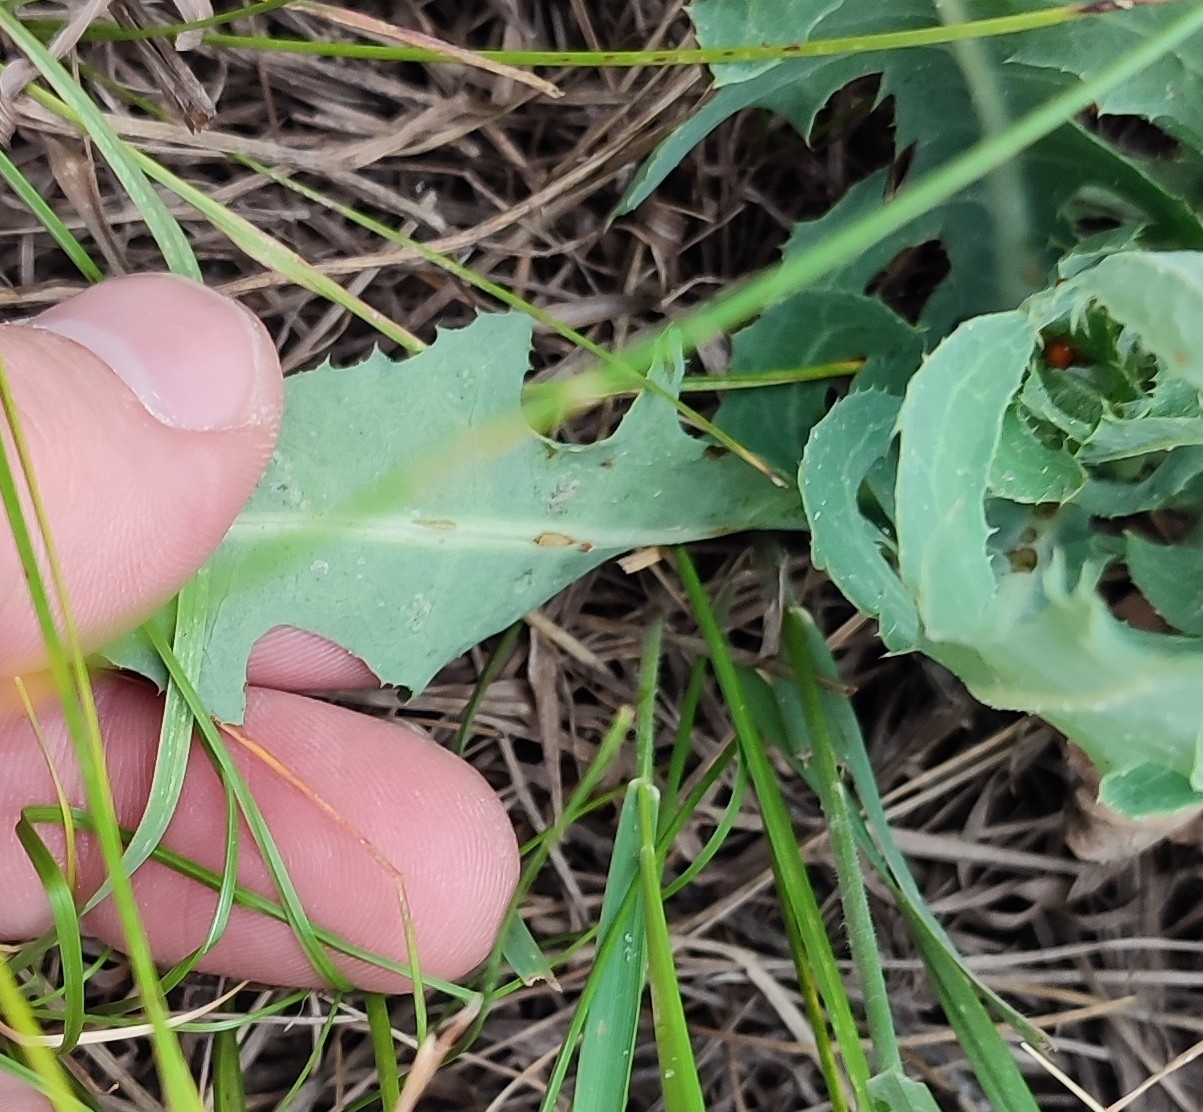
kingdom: Plantae
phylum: Tracheophyta
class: Magnoliopsida
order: Asterales
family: Asteraceae
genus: Lactuca
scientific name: Lactuca tatarica
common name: Blue lettuce
